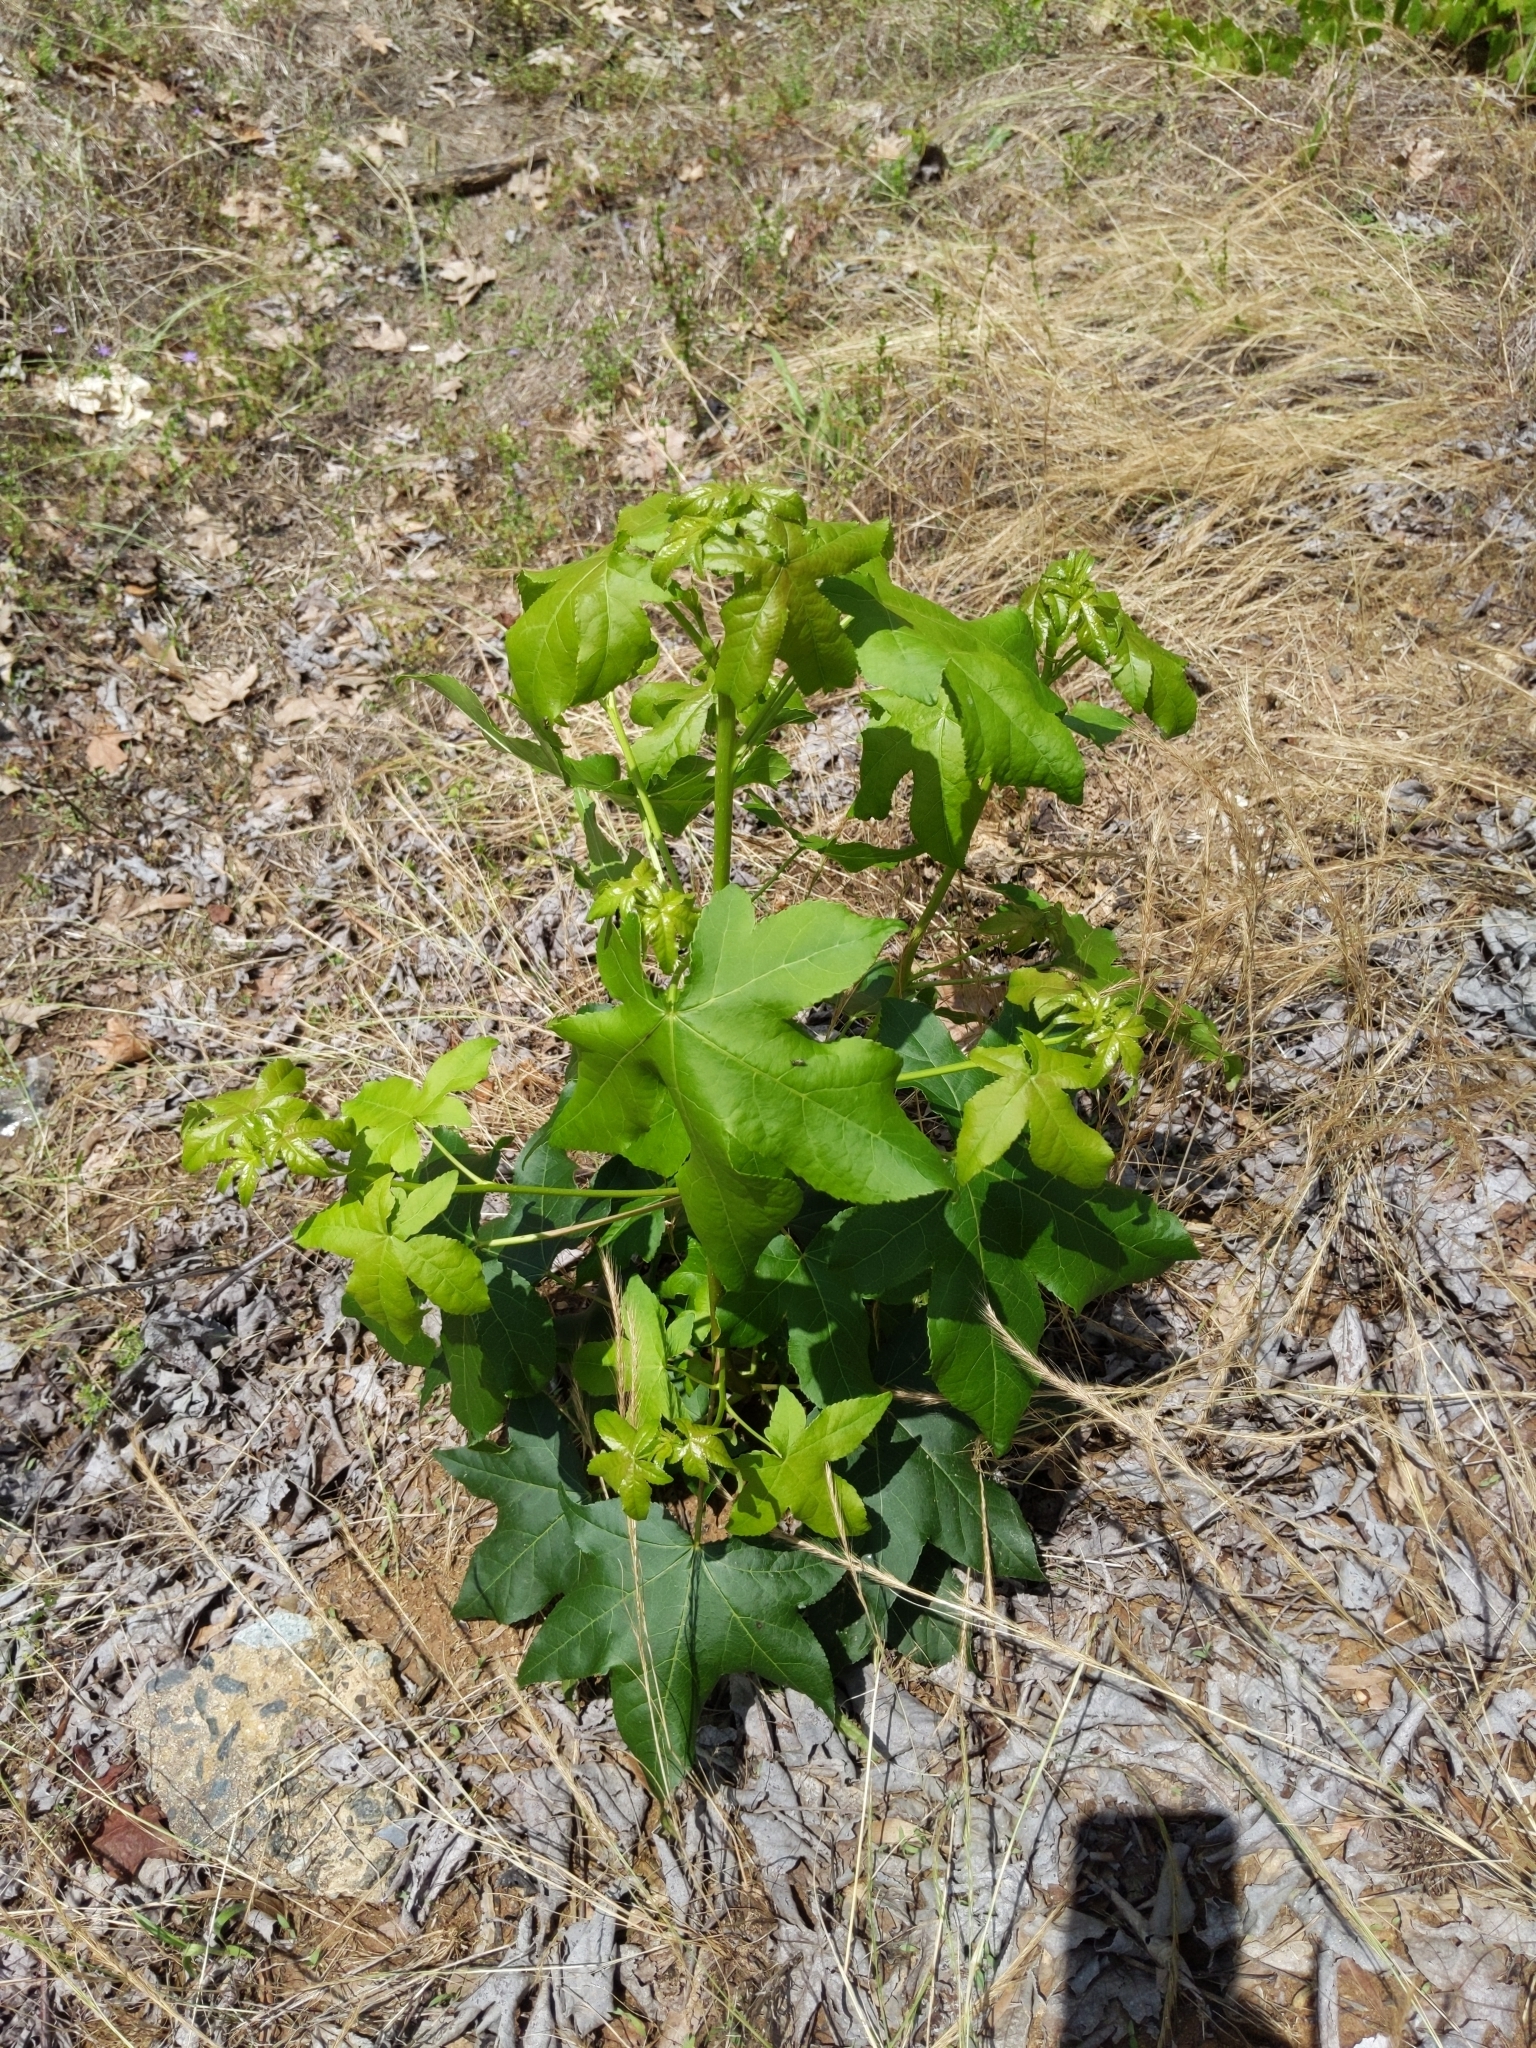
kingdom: Plantae
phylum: Tracheophyta
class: Magnoliopsida
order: Saxifragales
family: Altingiaceae
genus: Liquidambar
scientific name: Liquidambar styraciflua
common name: Sweet gum
